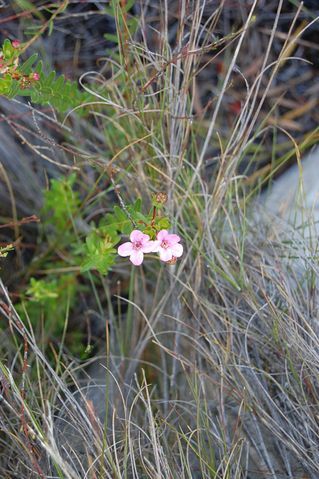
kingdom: Plantae
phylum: Tracheophyta
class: Magnoliopsida
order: Sapindales
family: Rutaceae
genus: Adenandra
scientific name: Adenandra fragrans
